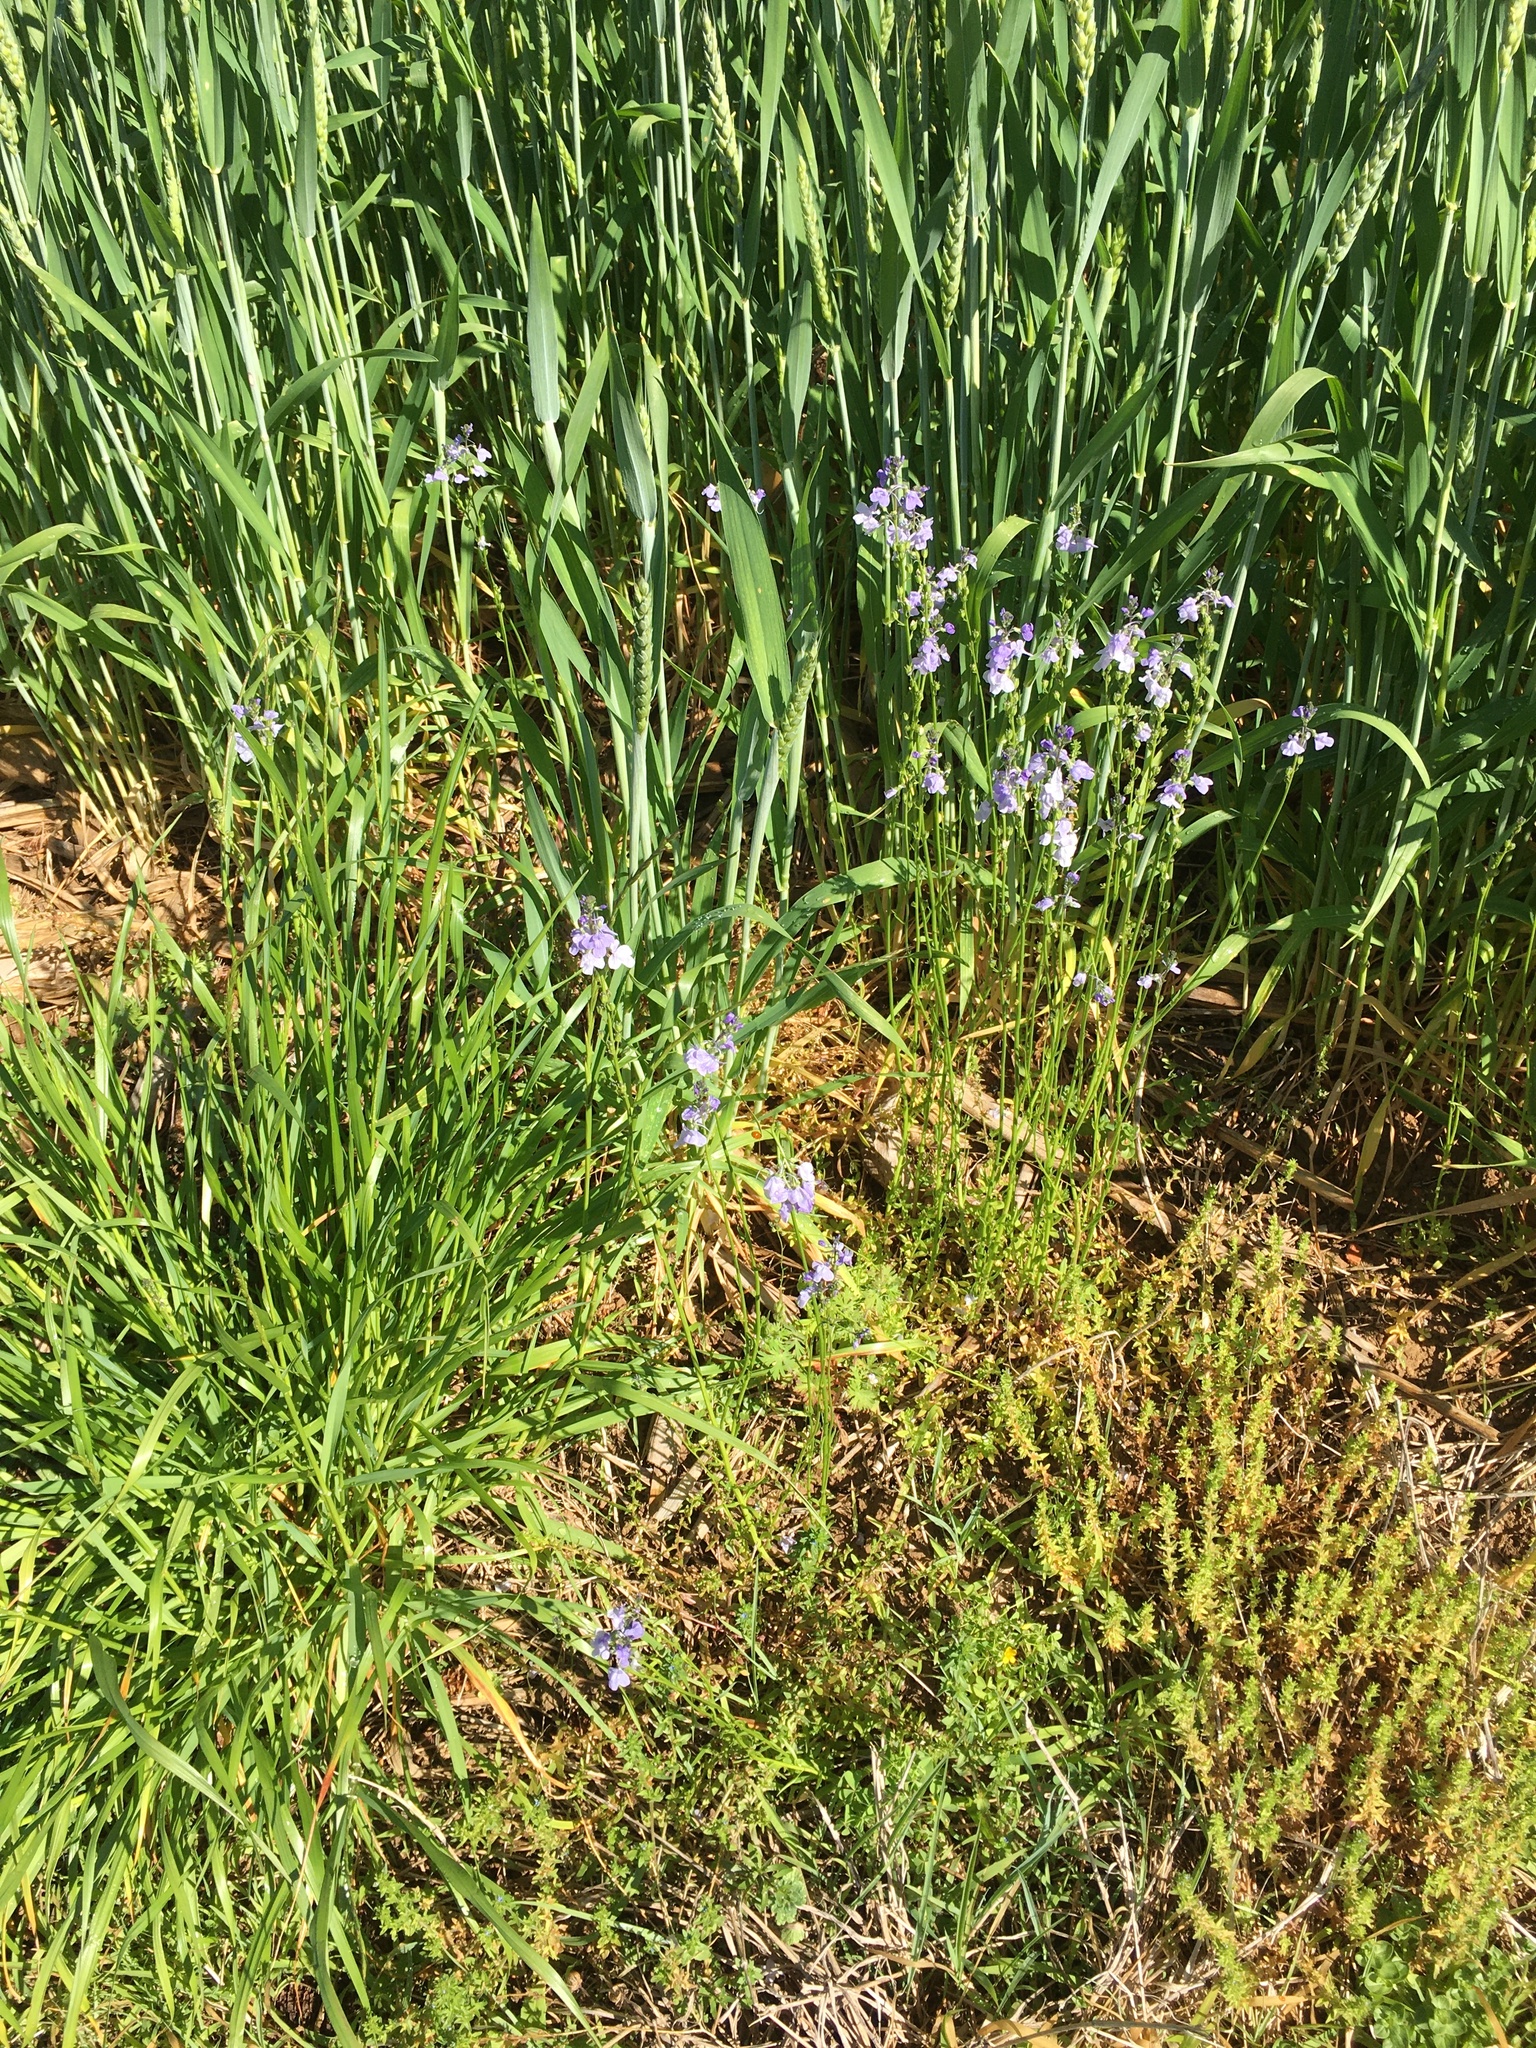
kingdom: Plantae
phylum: Tracheophyta
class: Magnoliopsida
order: Lamiales
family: Plantaginaceae
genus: Nuttallanthus
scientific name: Nuttallanthus texanus
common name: Texas toadflax
